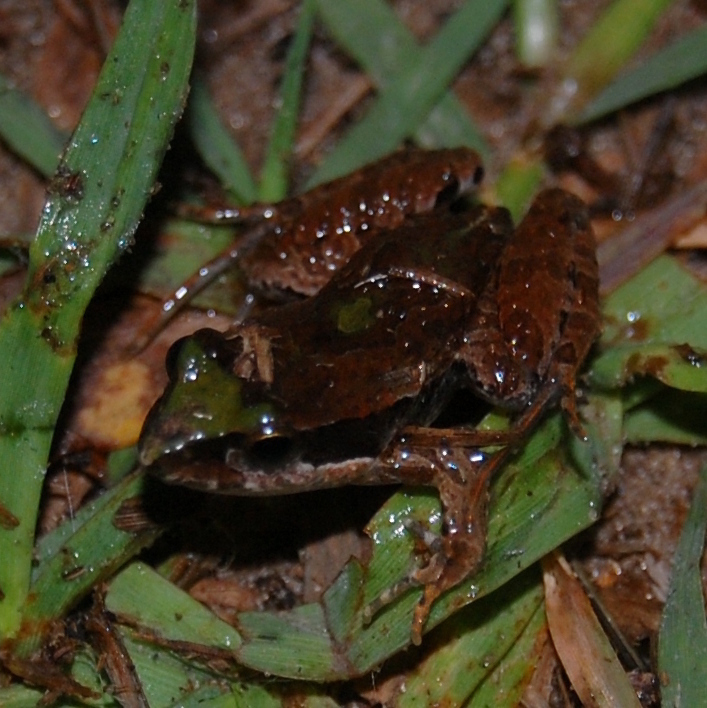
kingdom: Animalia
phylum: Chordata
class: Amphibia
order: Anura
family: Leptodactylidae
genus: Physalaemus
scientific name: Physalaemus gracilis
